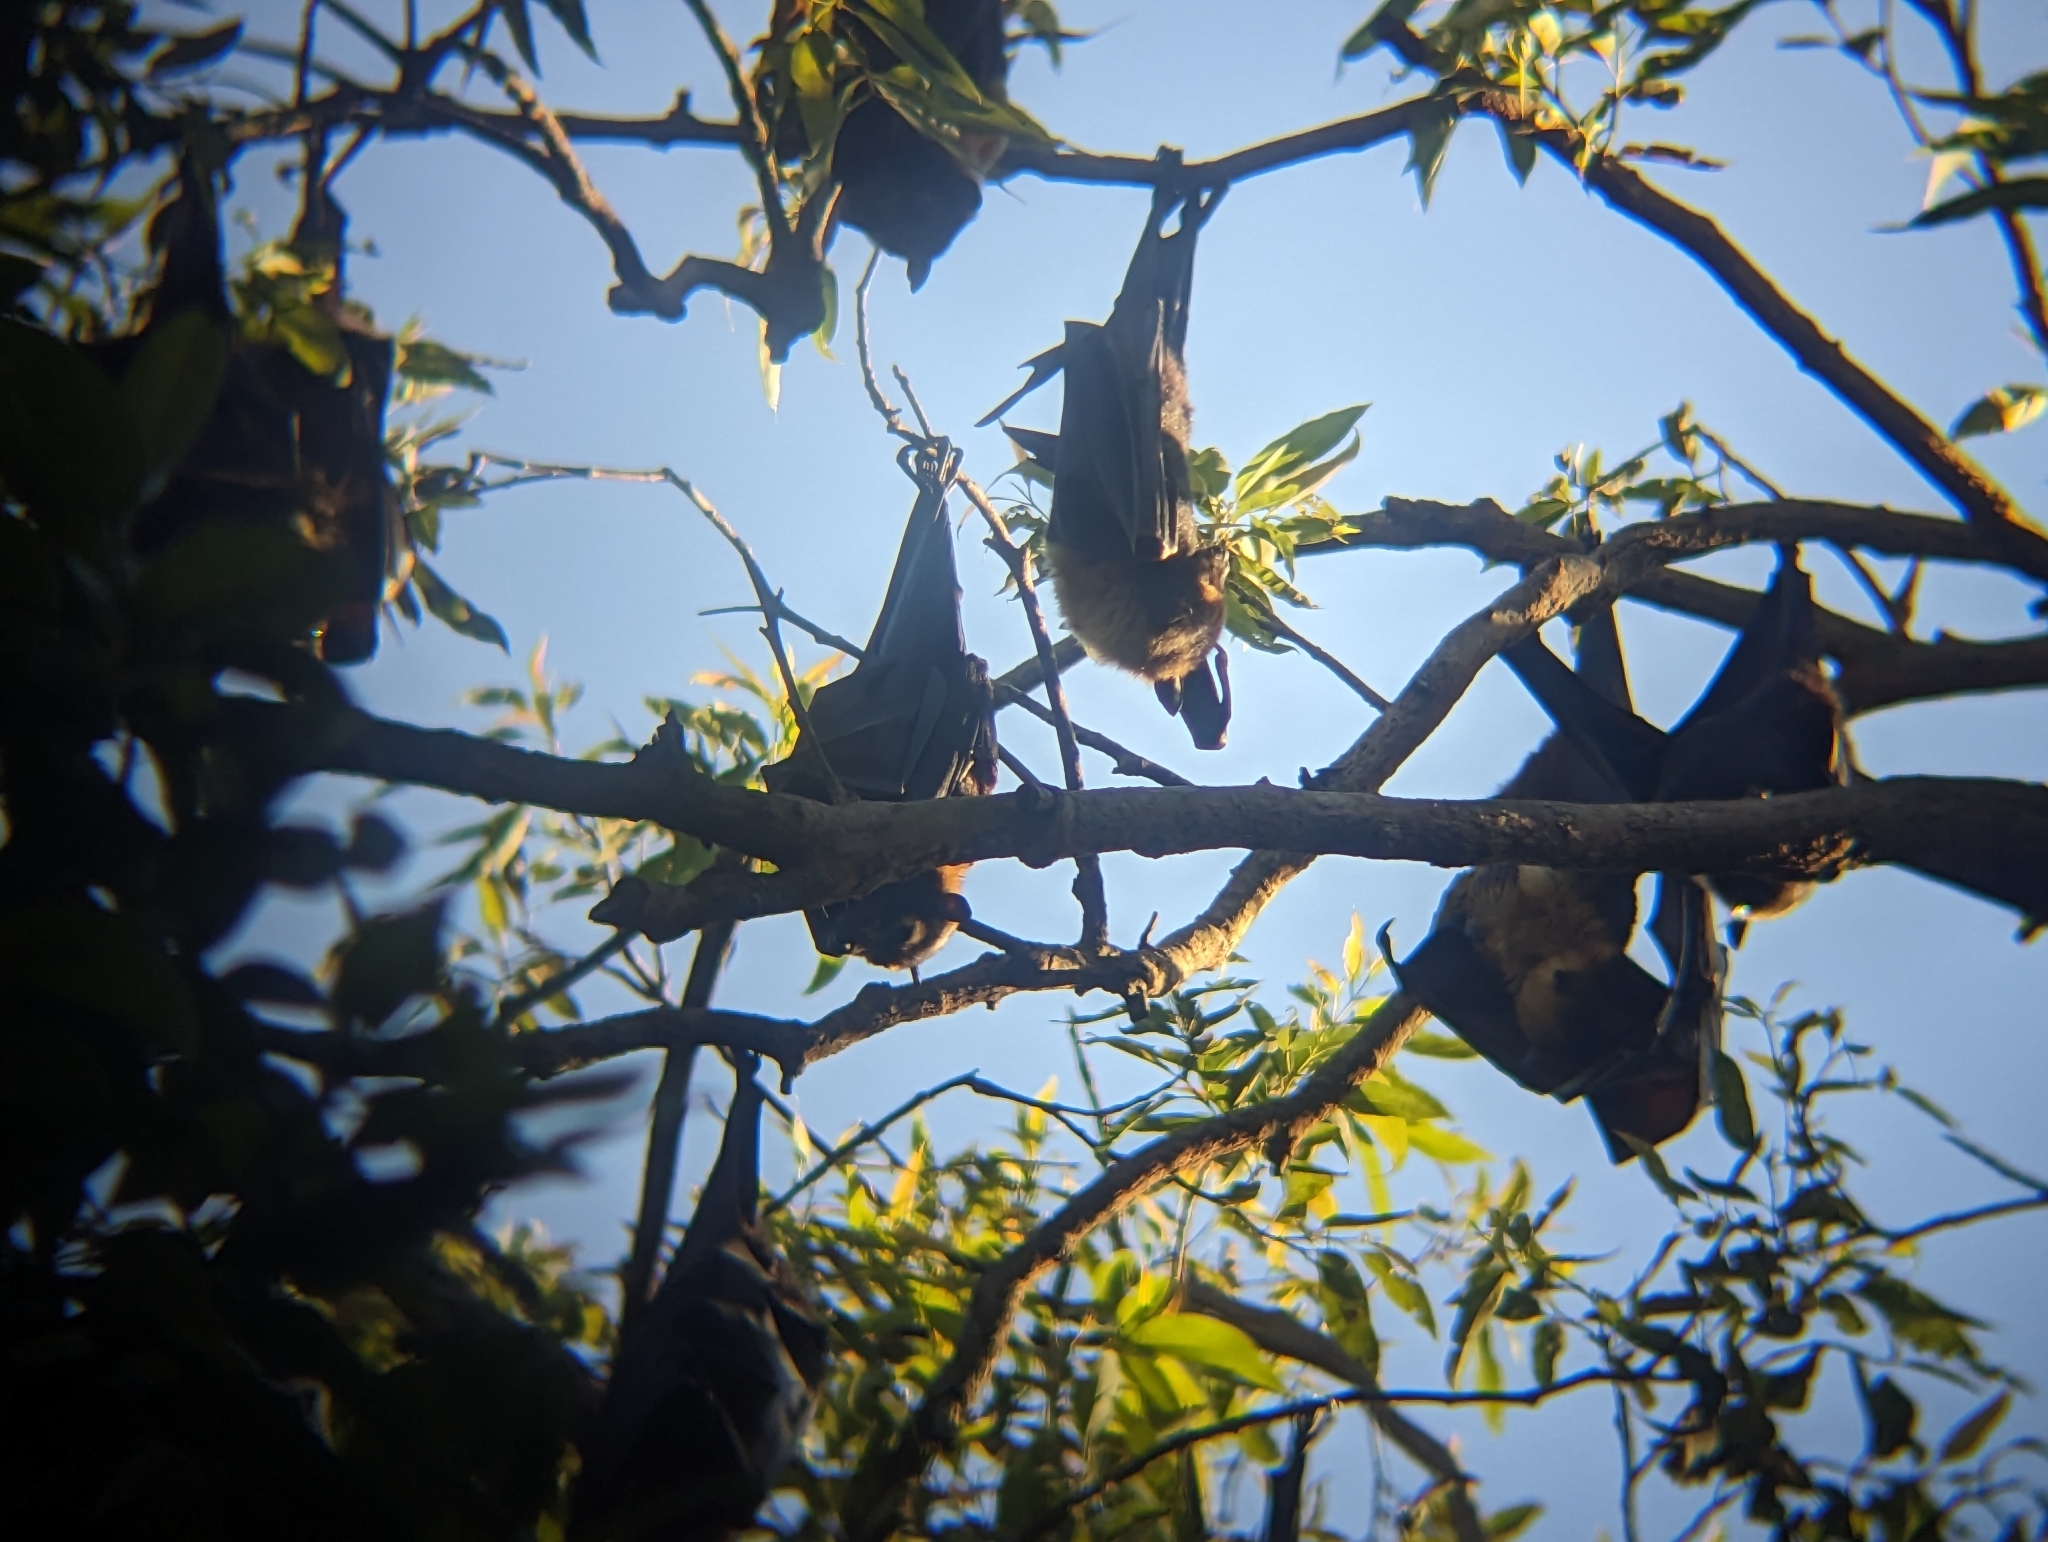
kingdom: Animalia
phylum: Chordata
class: Mammalia
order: Chiroptera
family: Pteropodidae
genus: Pteropus
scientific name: Pteropus conspicillatus
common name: Spectacled flying fox
